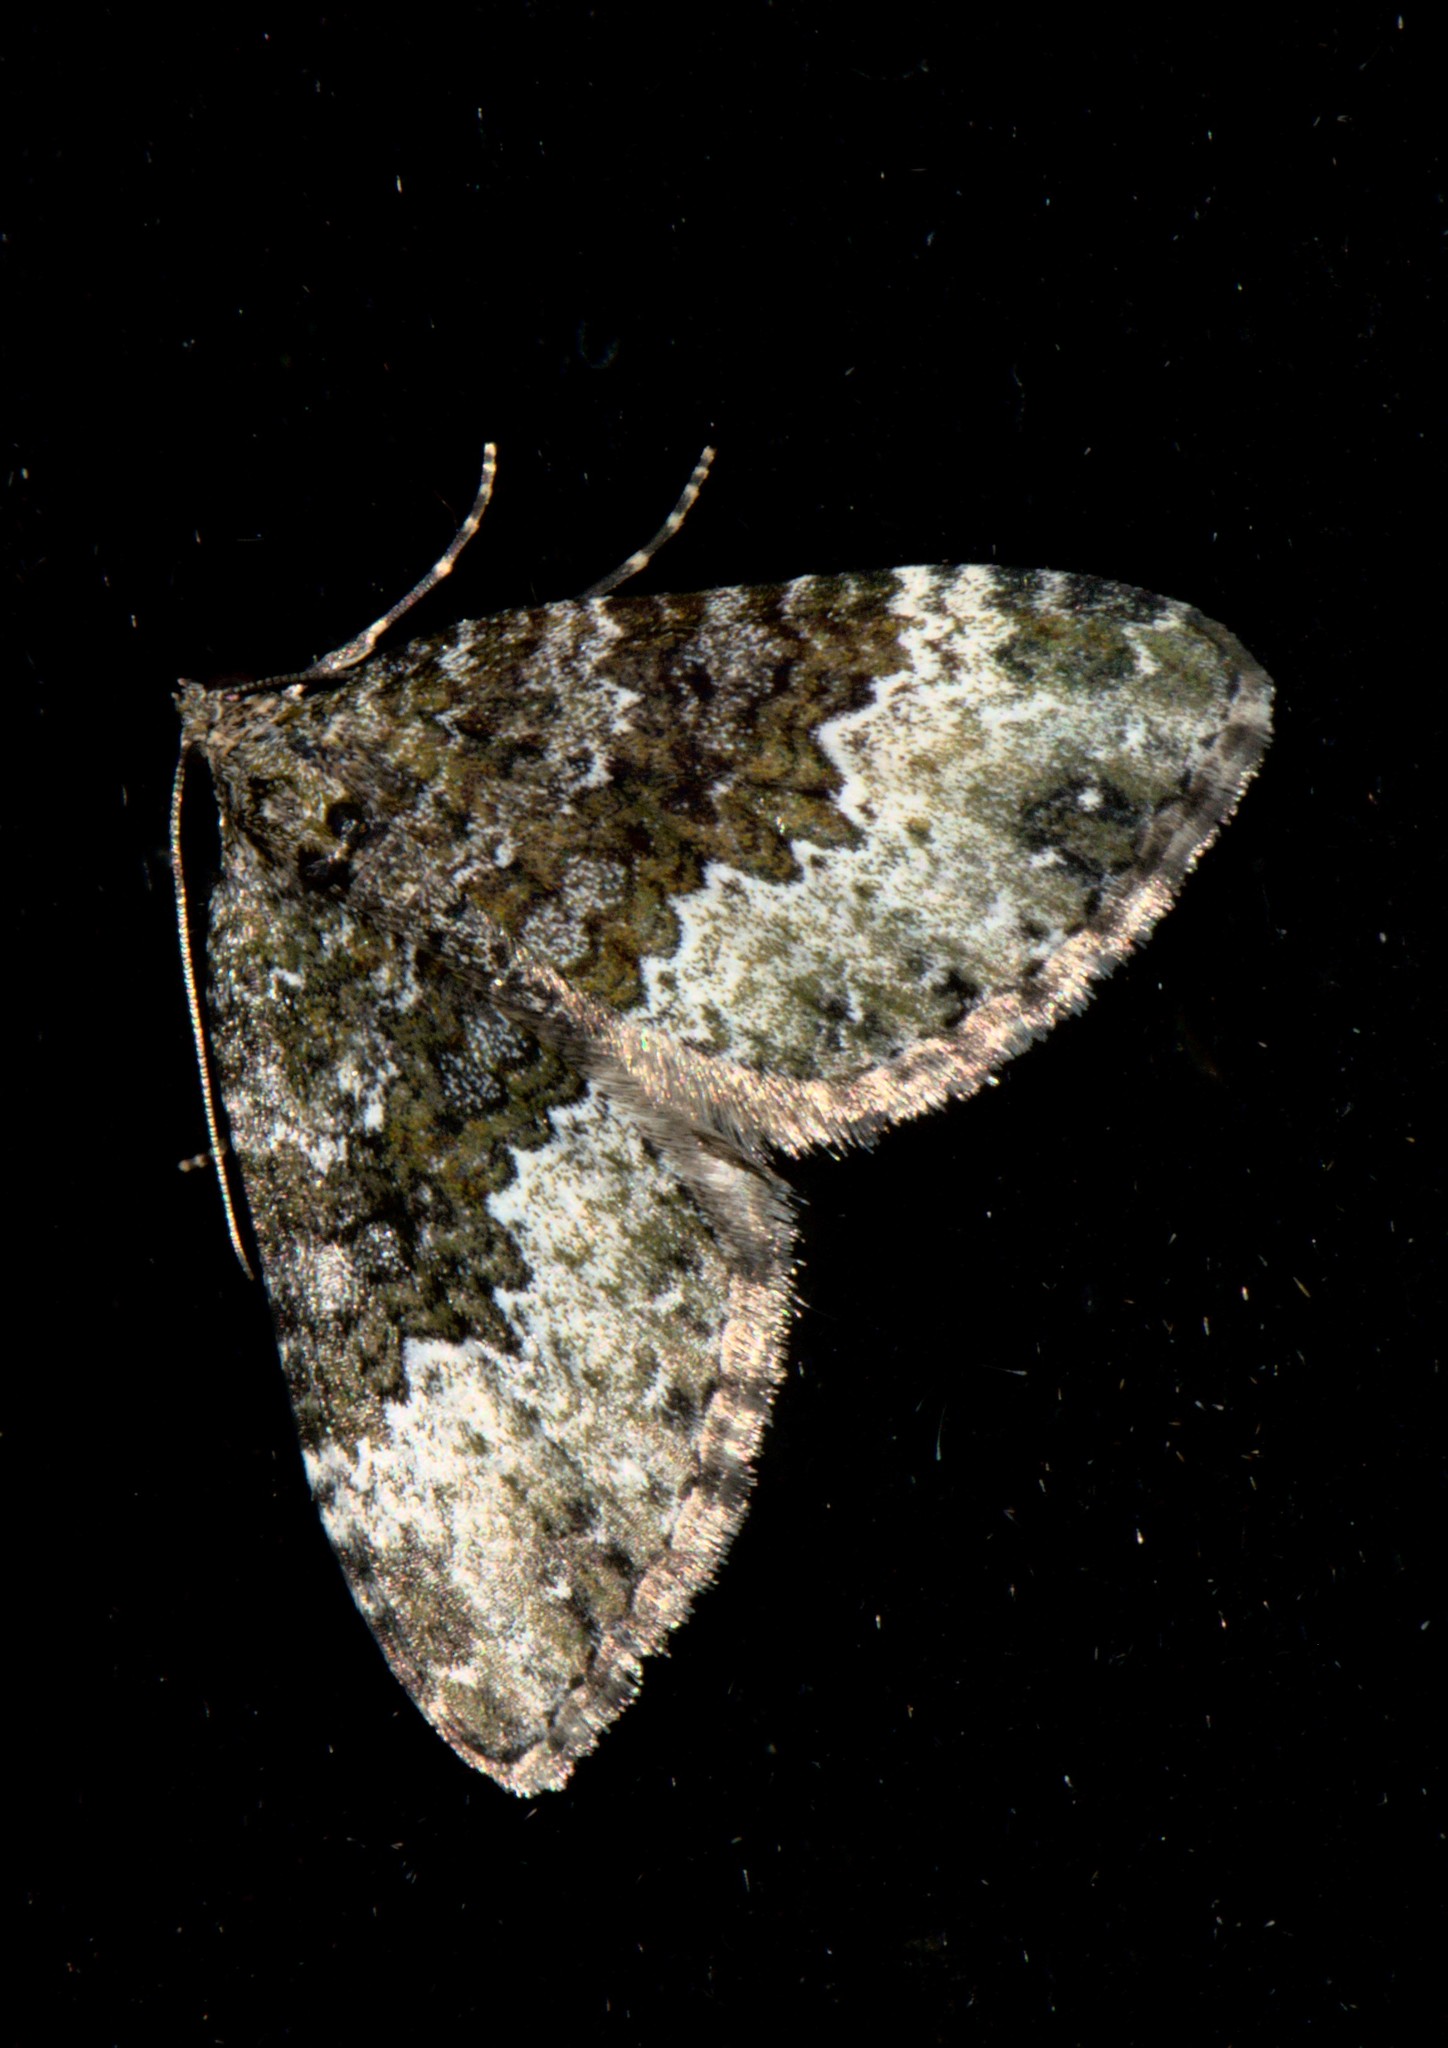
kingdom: Animalia
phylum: Arthropoda
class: Insecta
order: Lepidoptera
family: Geometridae
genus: Euphyia
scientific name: Euphyia ochreata
